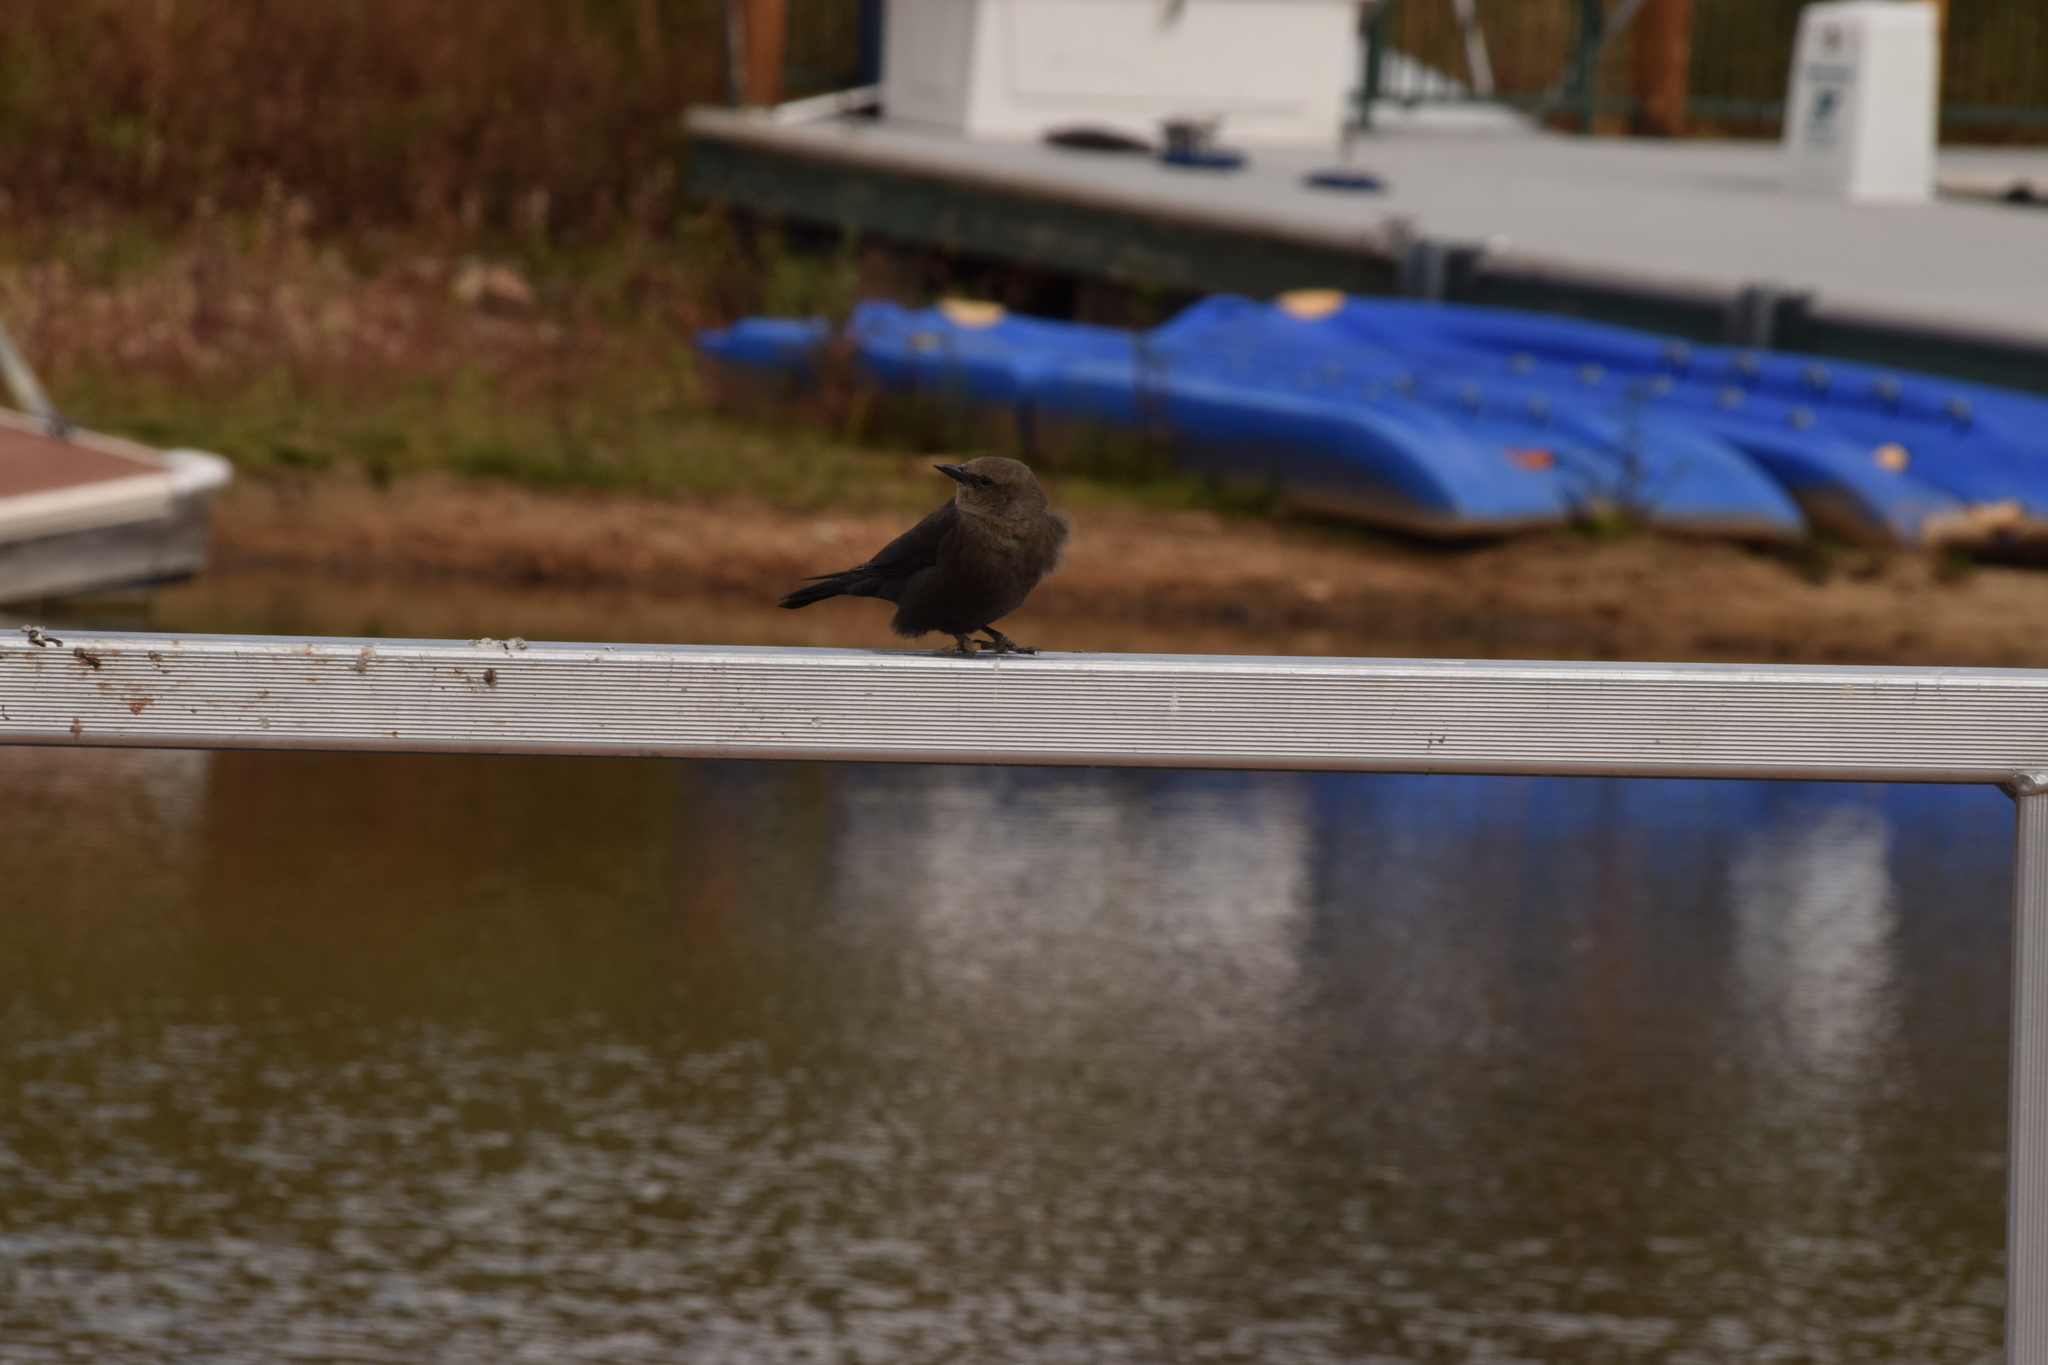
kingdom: Animalia
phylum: Chordata
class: Aves
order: Passeriformes
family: Icteridae
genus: Euphagus
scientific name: Euphagus cyanocephalus
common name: Brewer's blackbird
